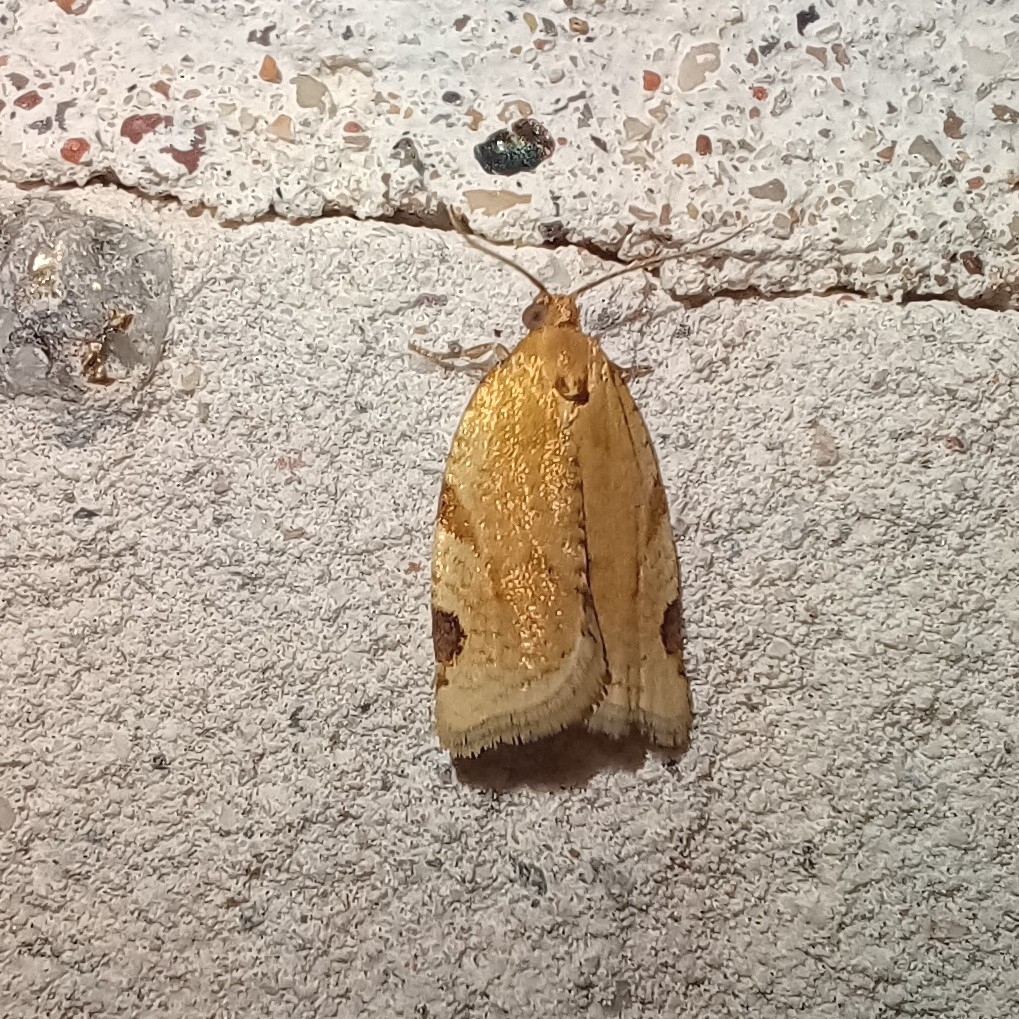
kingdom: Animalia
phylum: Arthropoda
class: Insecta
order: Lepidoptera
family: Tortricidae
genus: Paramesia
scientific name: Paramesia gnomana
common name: Small straw twist
